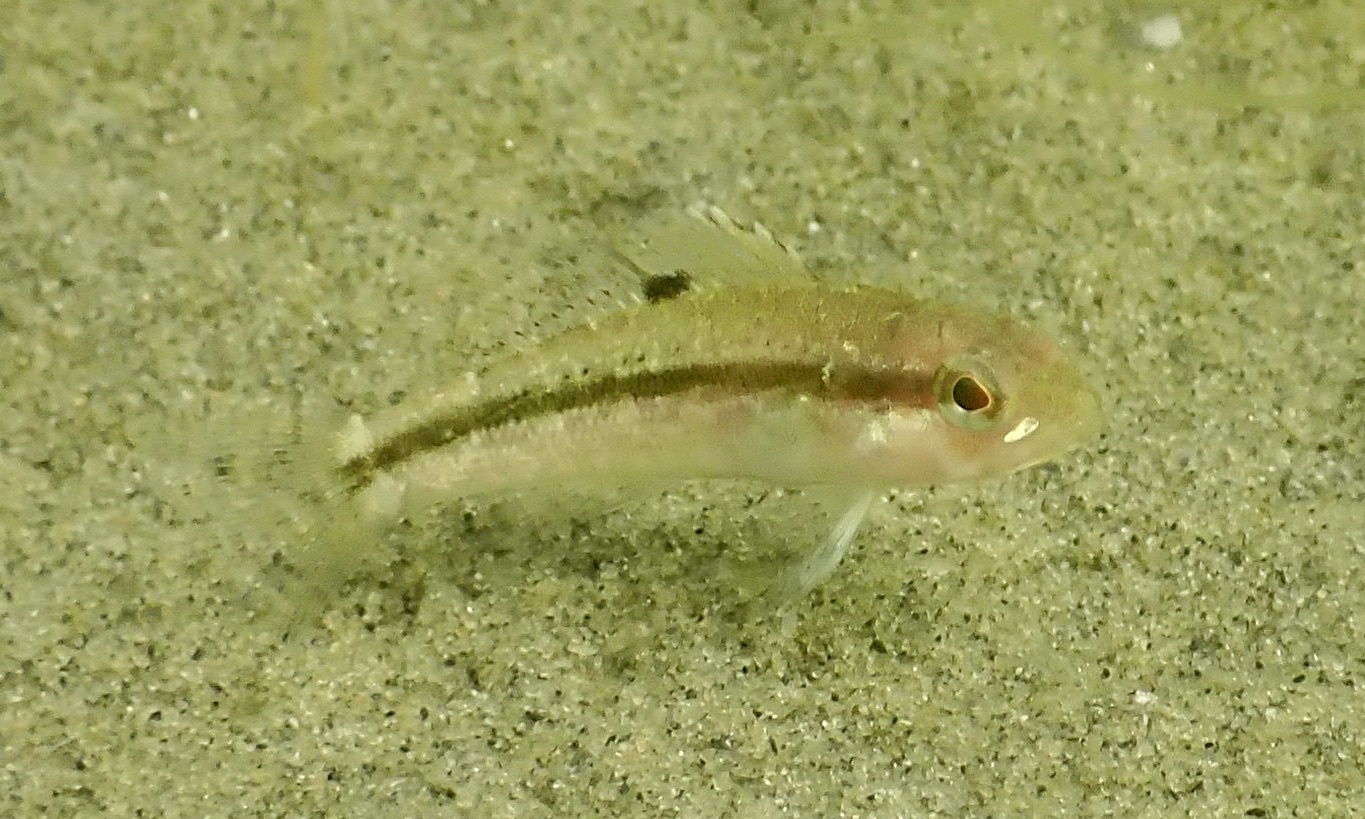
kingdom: Animalia
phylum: Chordata
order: Perciformes
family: Serranidae
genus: Centropristis
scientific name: Centropristis striata
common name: Black sea bass
